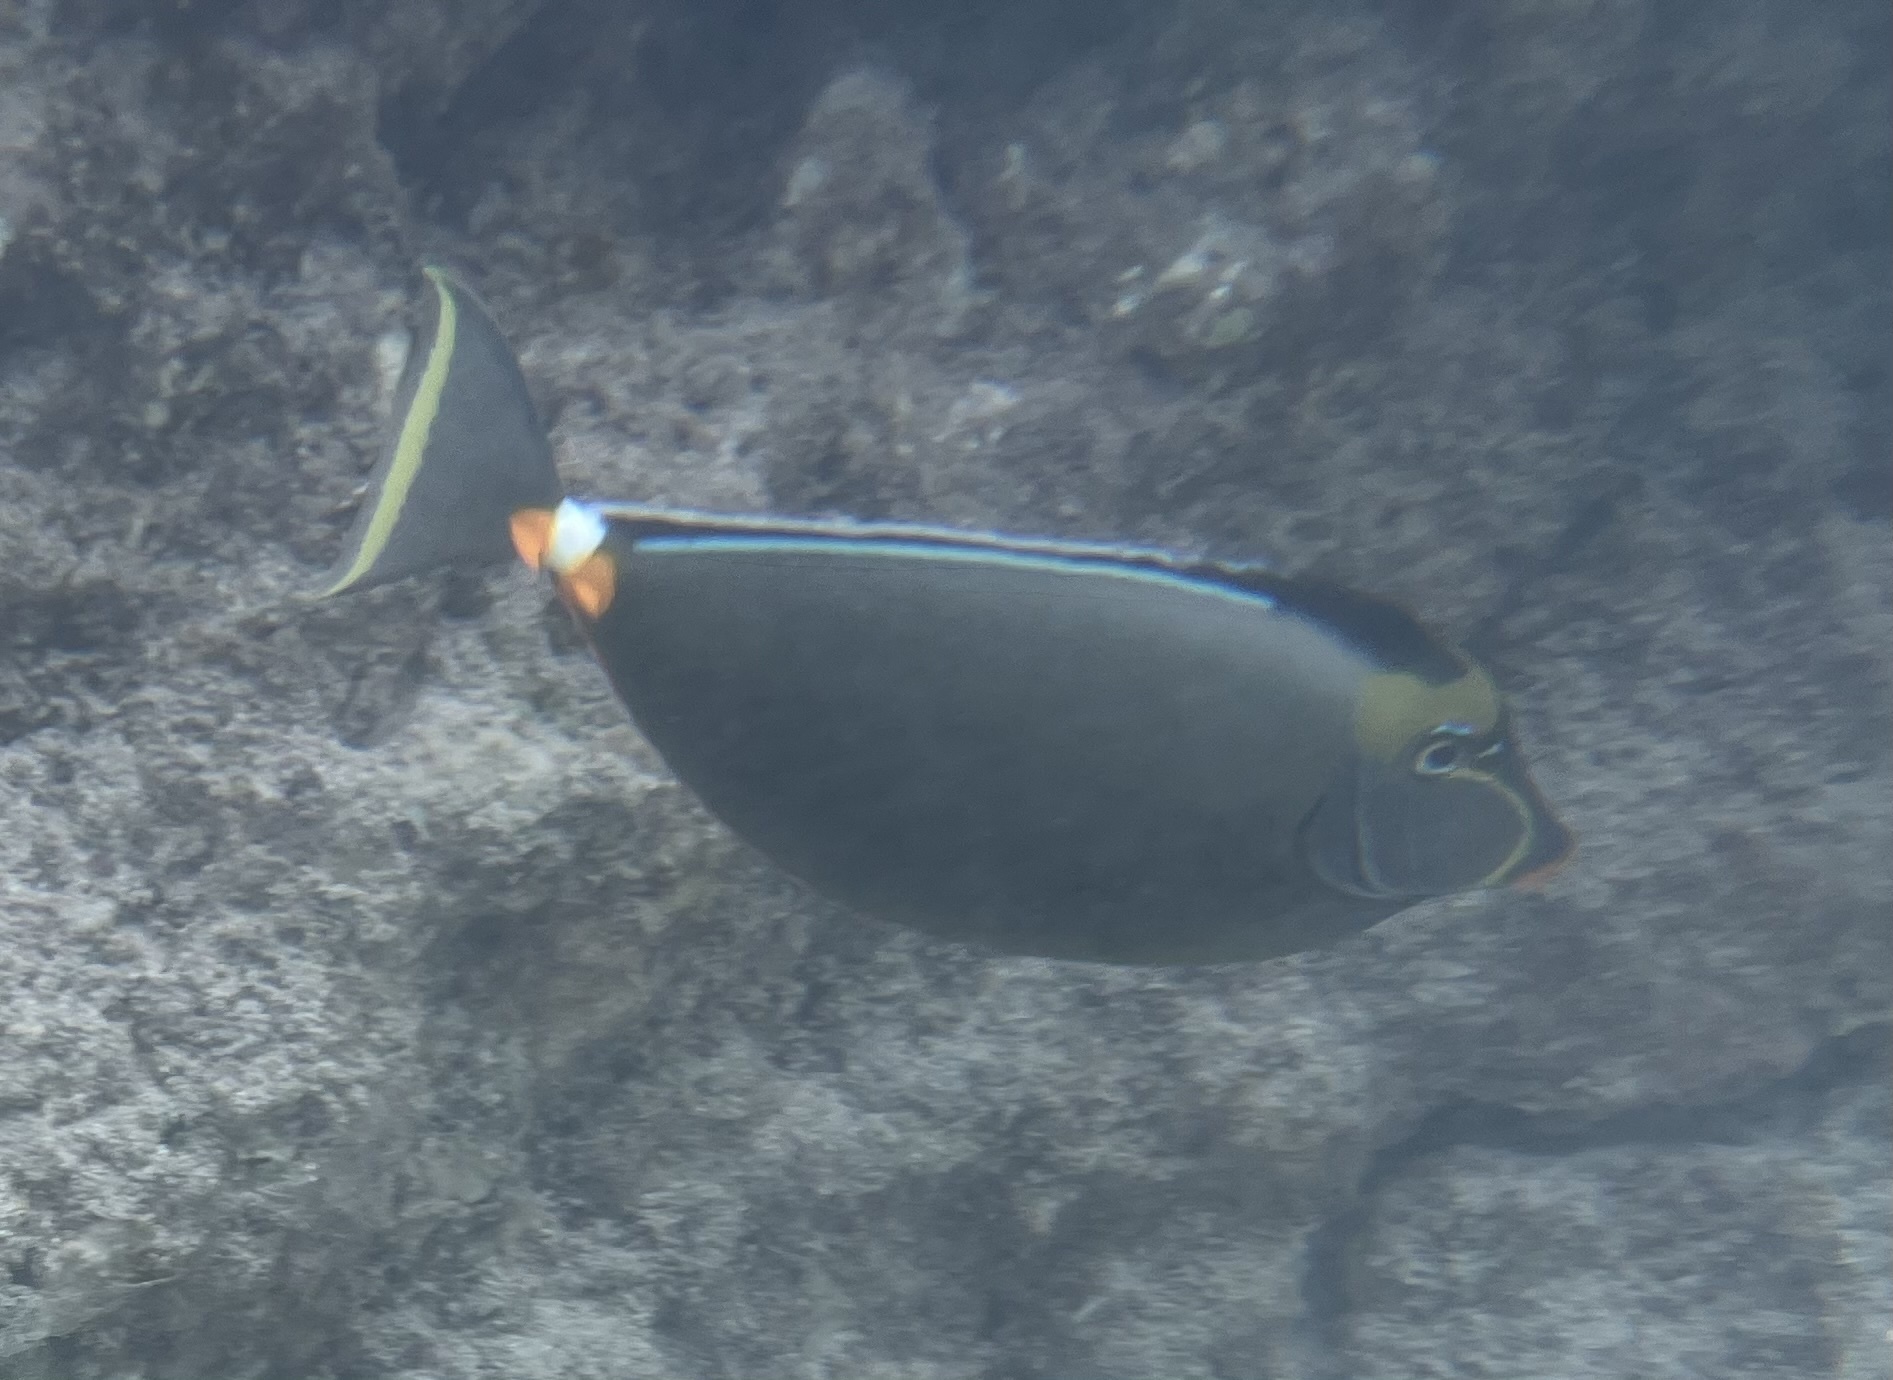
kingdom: Animalia
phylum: Chordata
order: Perciformes
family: Acanthuridae
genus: Naso
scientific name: Naso lituratus
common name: Orangespine unicornfish
